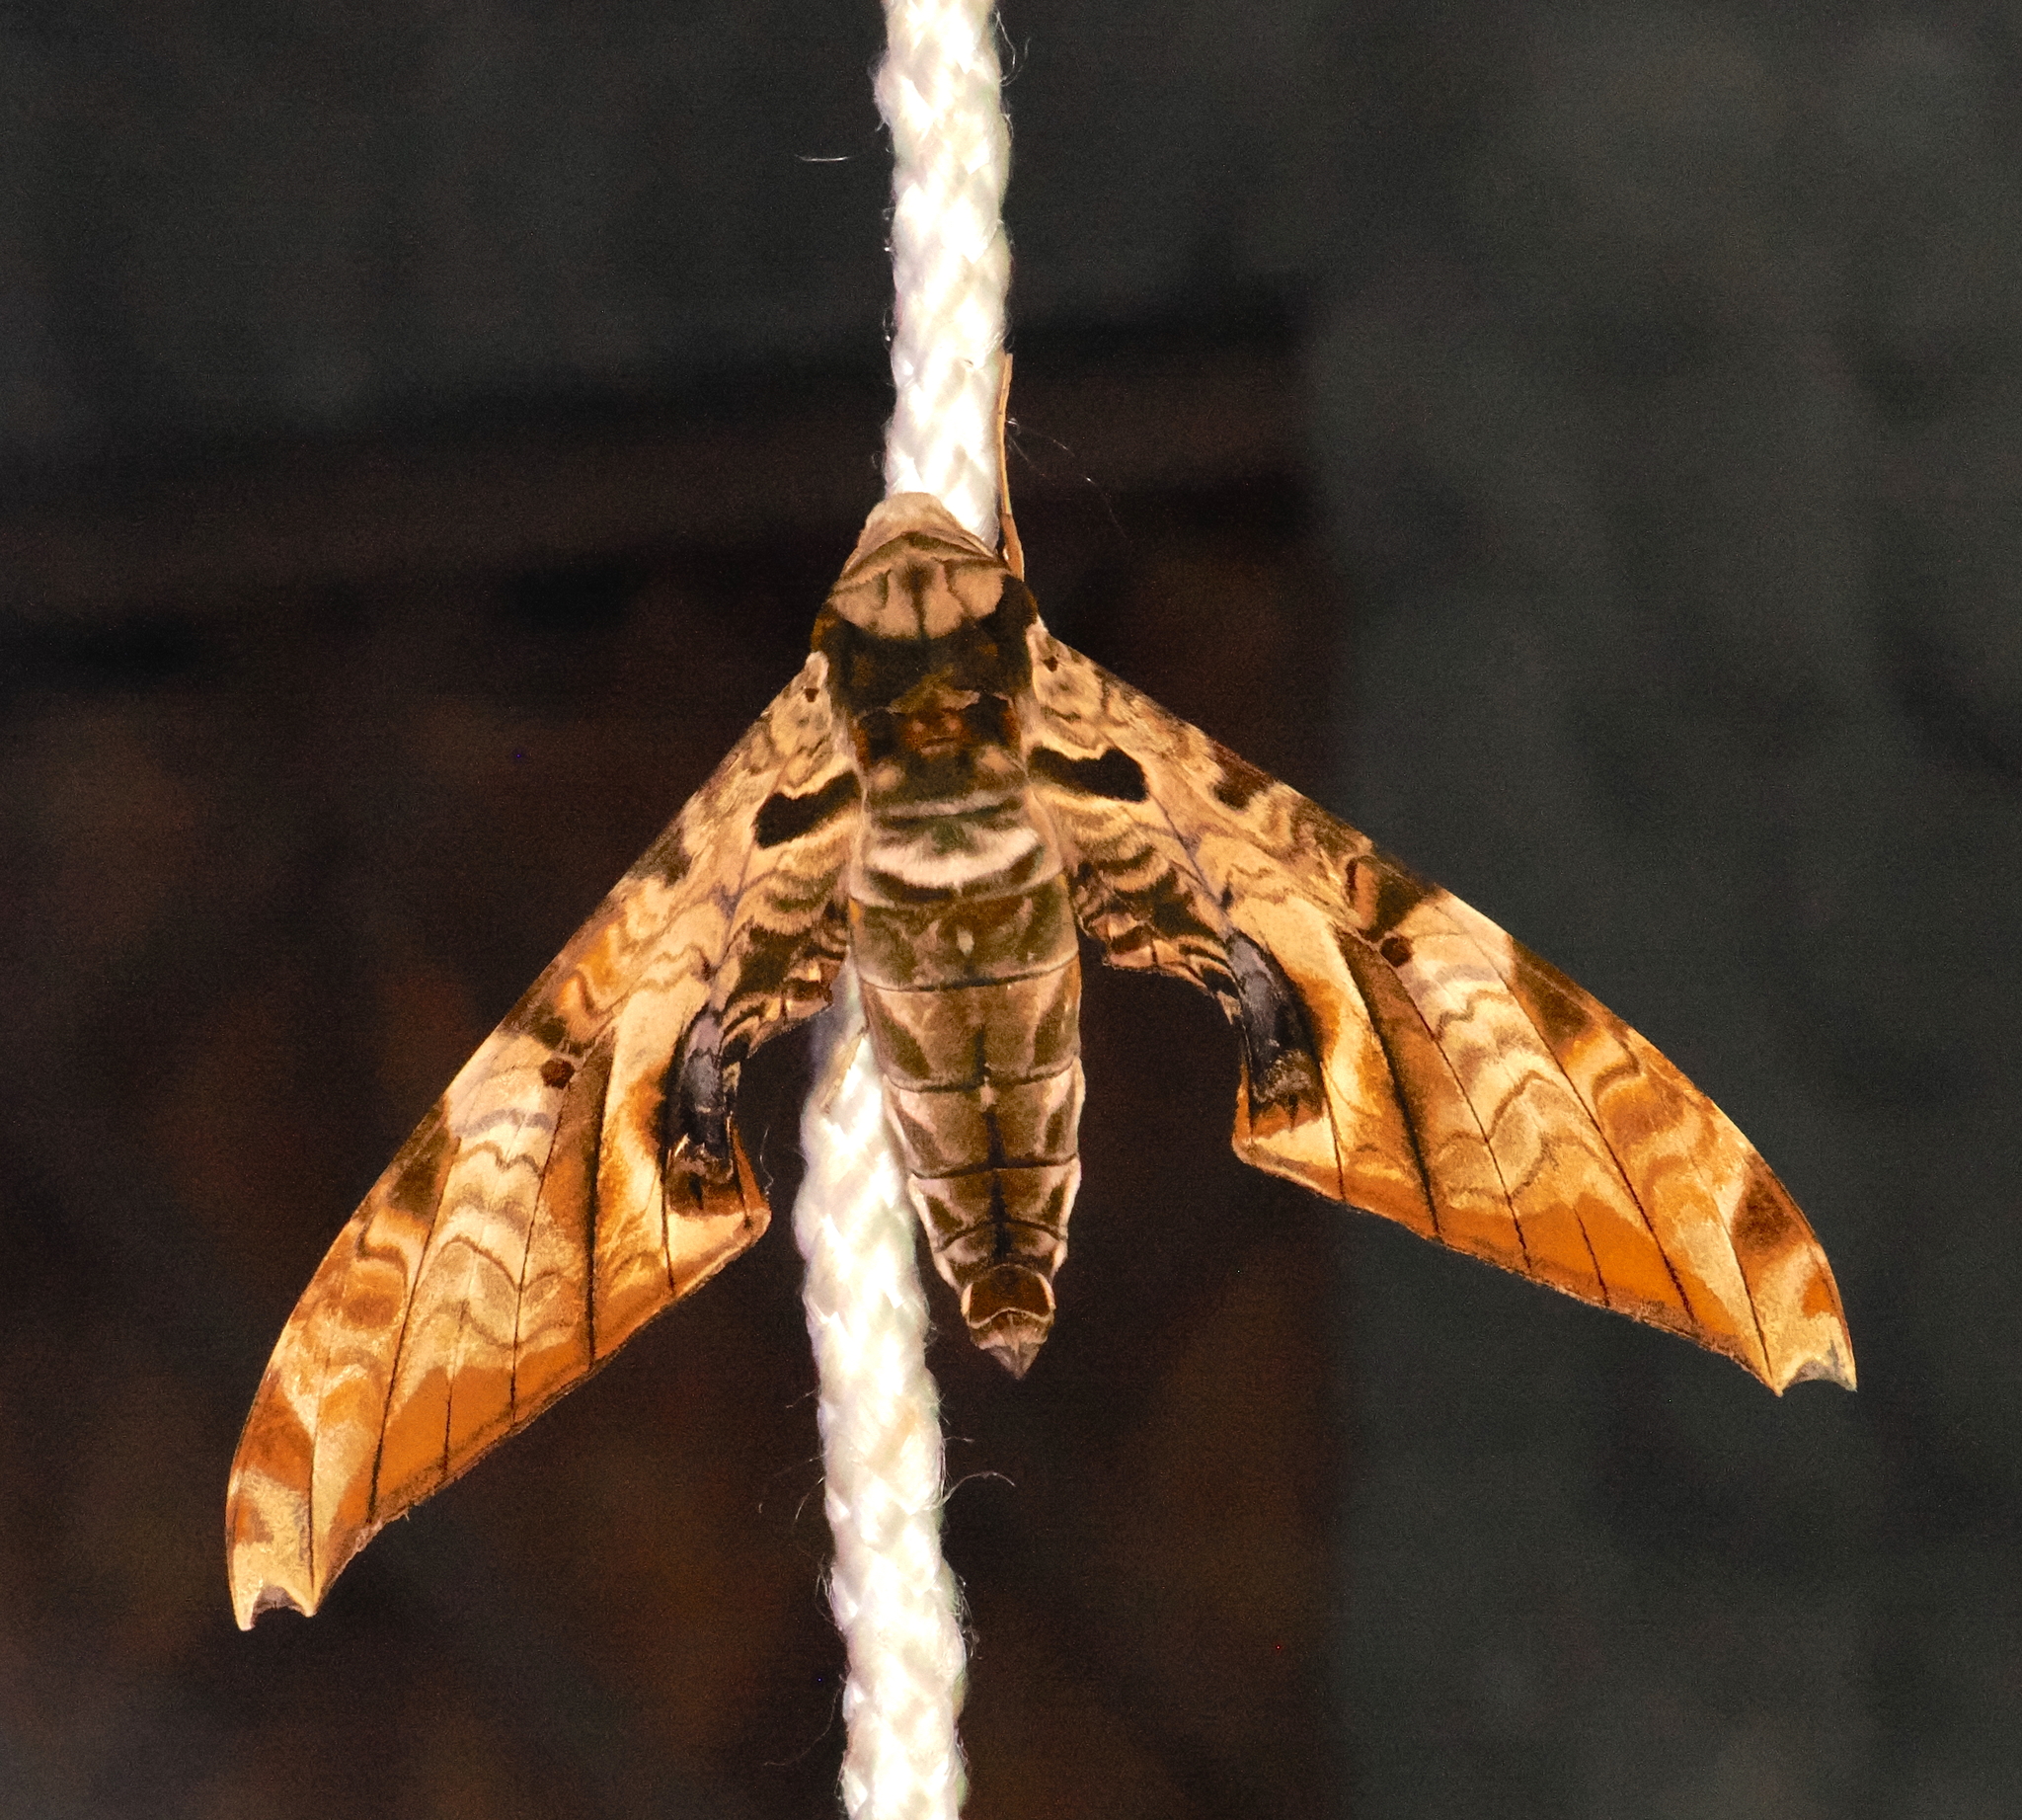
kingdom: Animalia
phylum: Arthropoda
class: Insecta
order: Lepidoptera
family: Sphingidae
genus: Protambulyx
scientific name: Protambulyx eurycles
